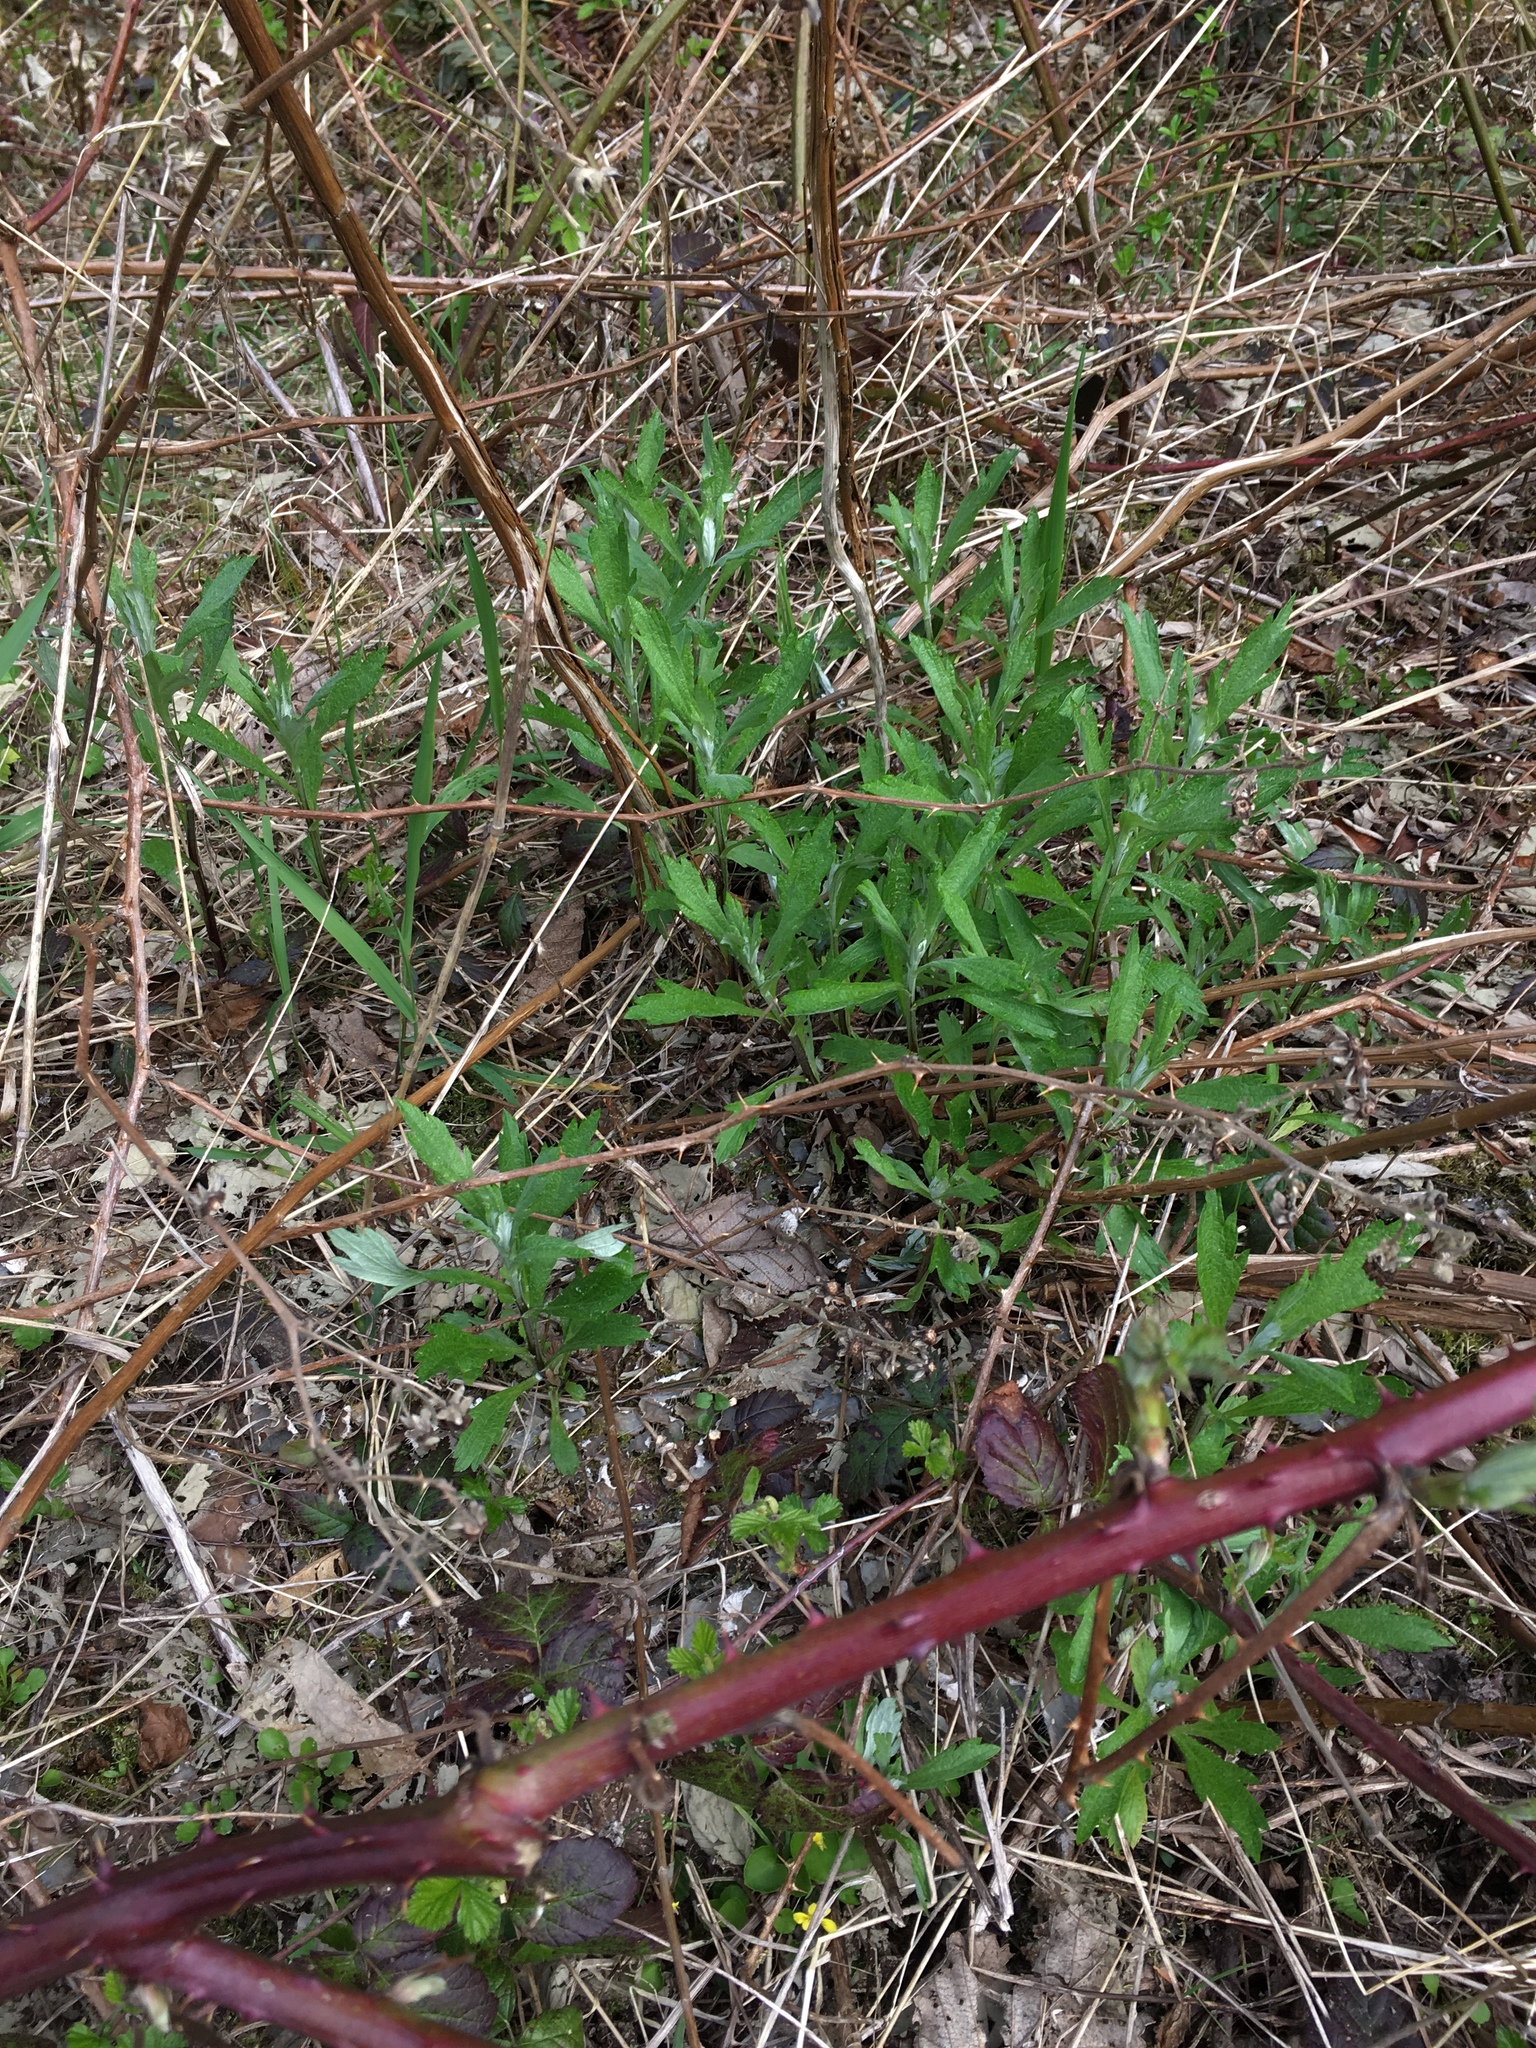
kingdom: Plantae
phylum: Tracheophyta
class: Magnoliopsida
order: Asterales
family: Asteraceae
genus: Artemisia
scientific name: Artemisia suksdorfii
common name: Suksdorf sagewort
